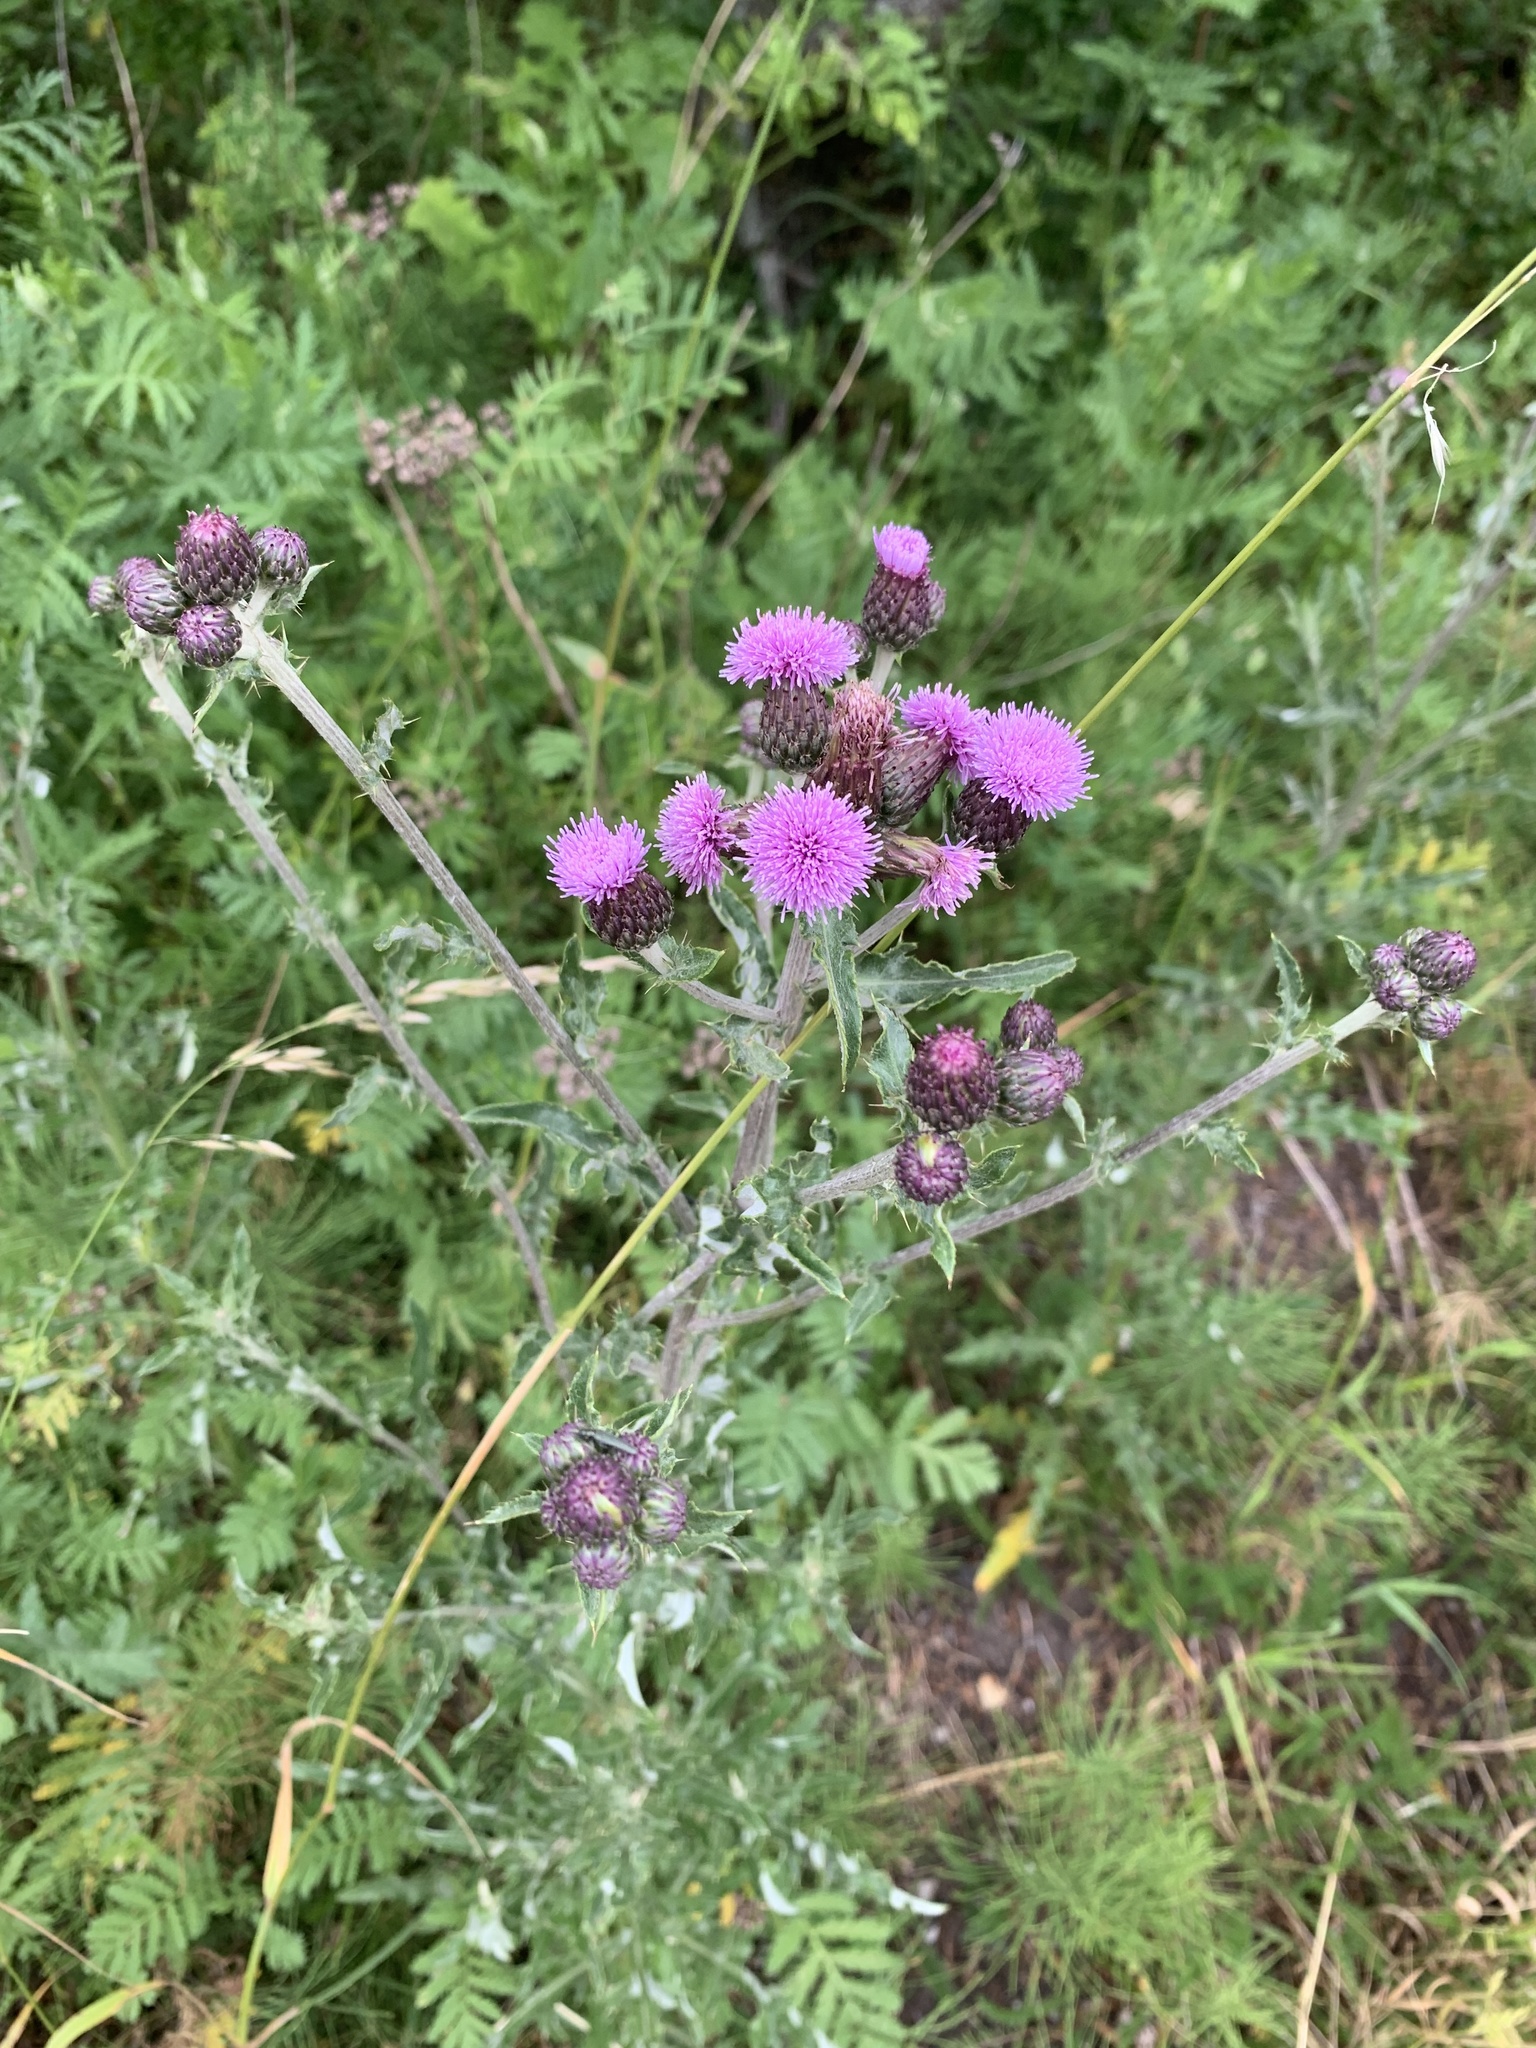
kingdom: Plantae
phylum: Tracheophyta
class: Magnoliopsida
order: Asterales
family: Asteraceae
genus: Cirsium
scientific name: Cirsium arvense
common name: Creeping thistle
